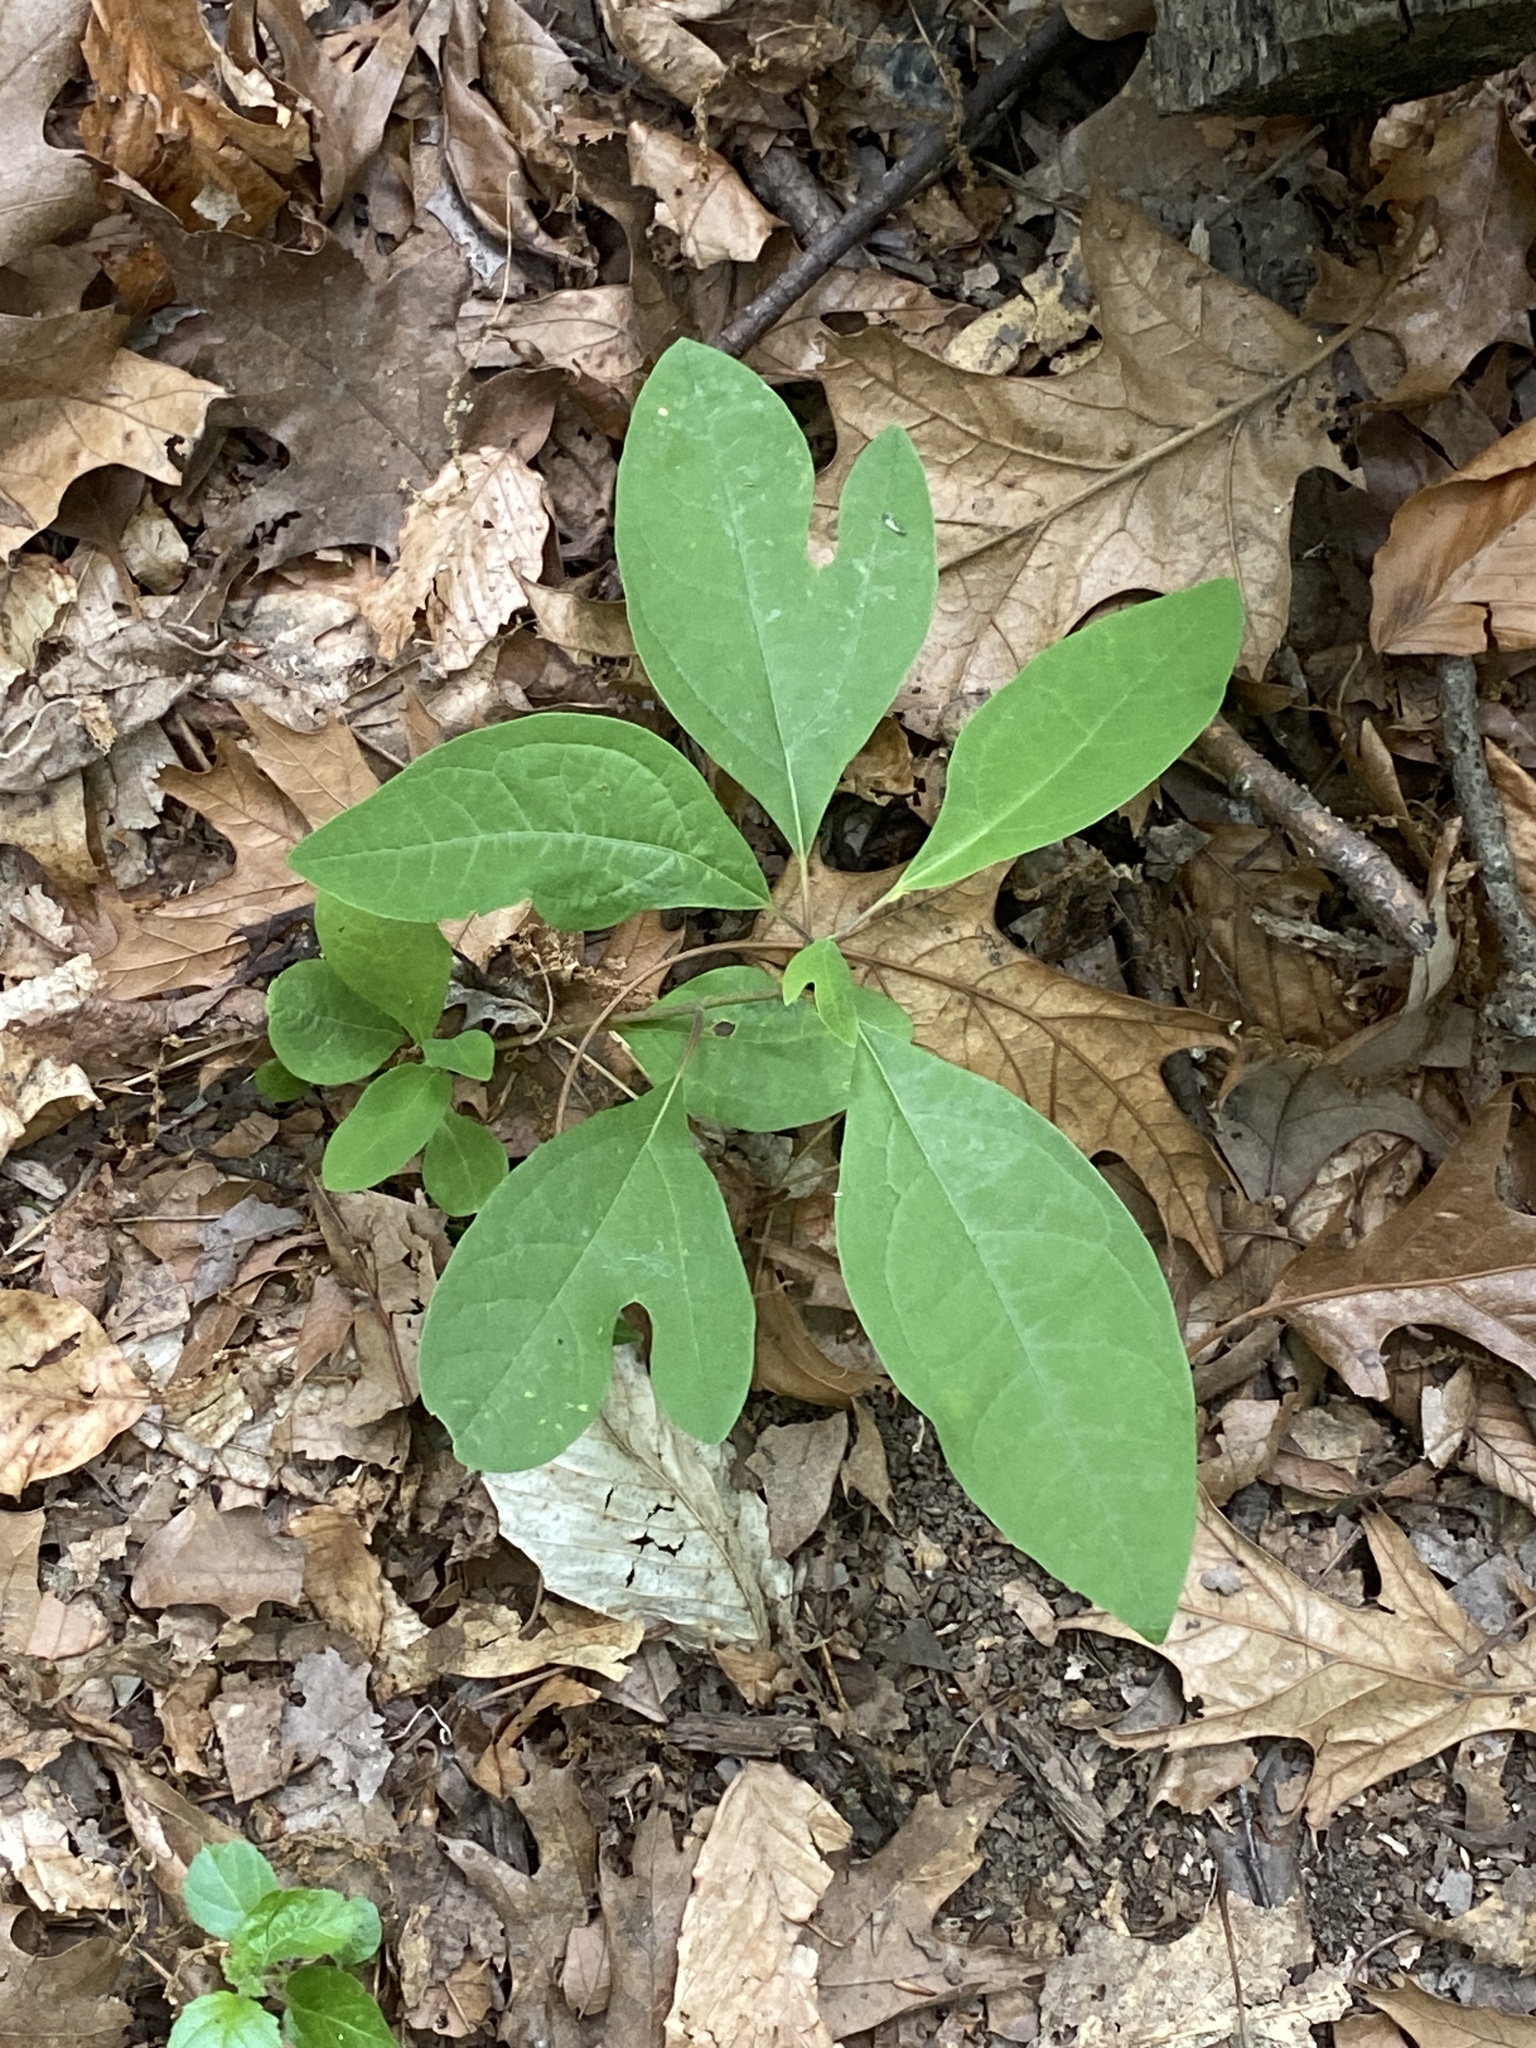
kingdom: Plantae
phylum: Tracheophyta
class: Magnoliopsida
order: Laurales
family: Lauraceae
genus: Sassafras
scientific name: Sassafras albidum
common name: Sassafras
